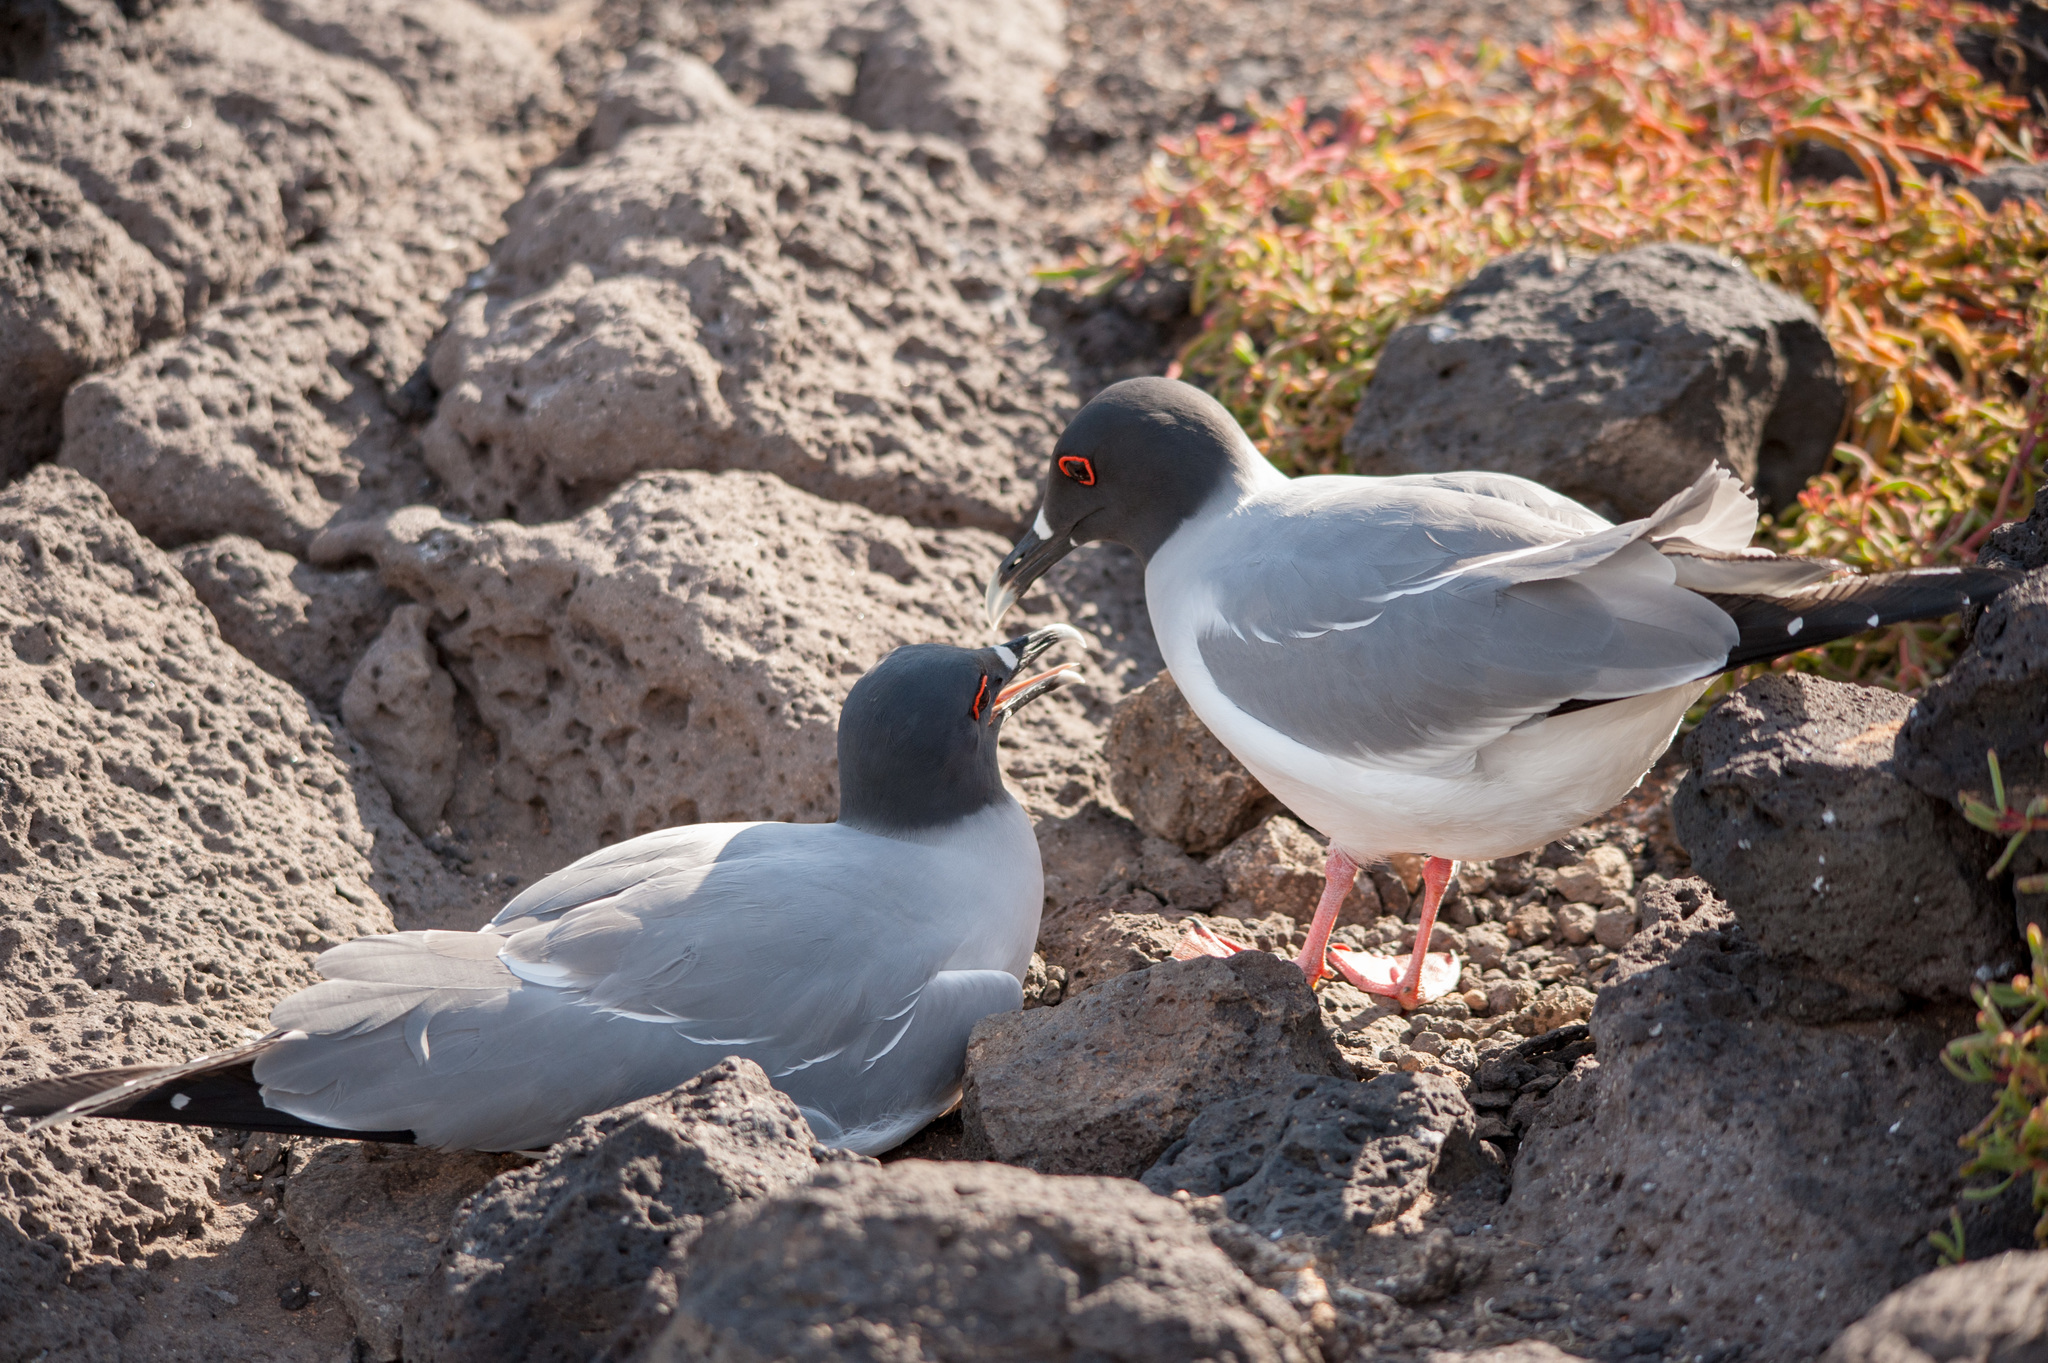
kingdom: Animalia
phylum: Chordata
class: Aves
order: Charadriiformes
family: Laridae
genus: Creagrus
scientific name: Creagrus furcatus
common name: Swallow-tailed gull
